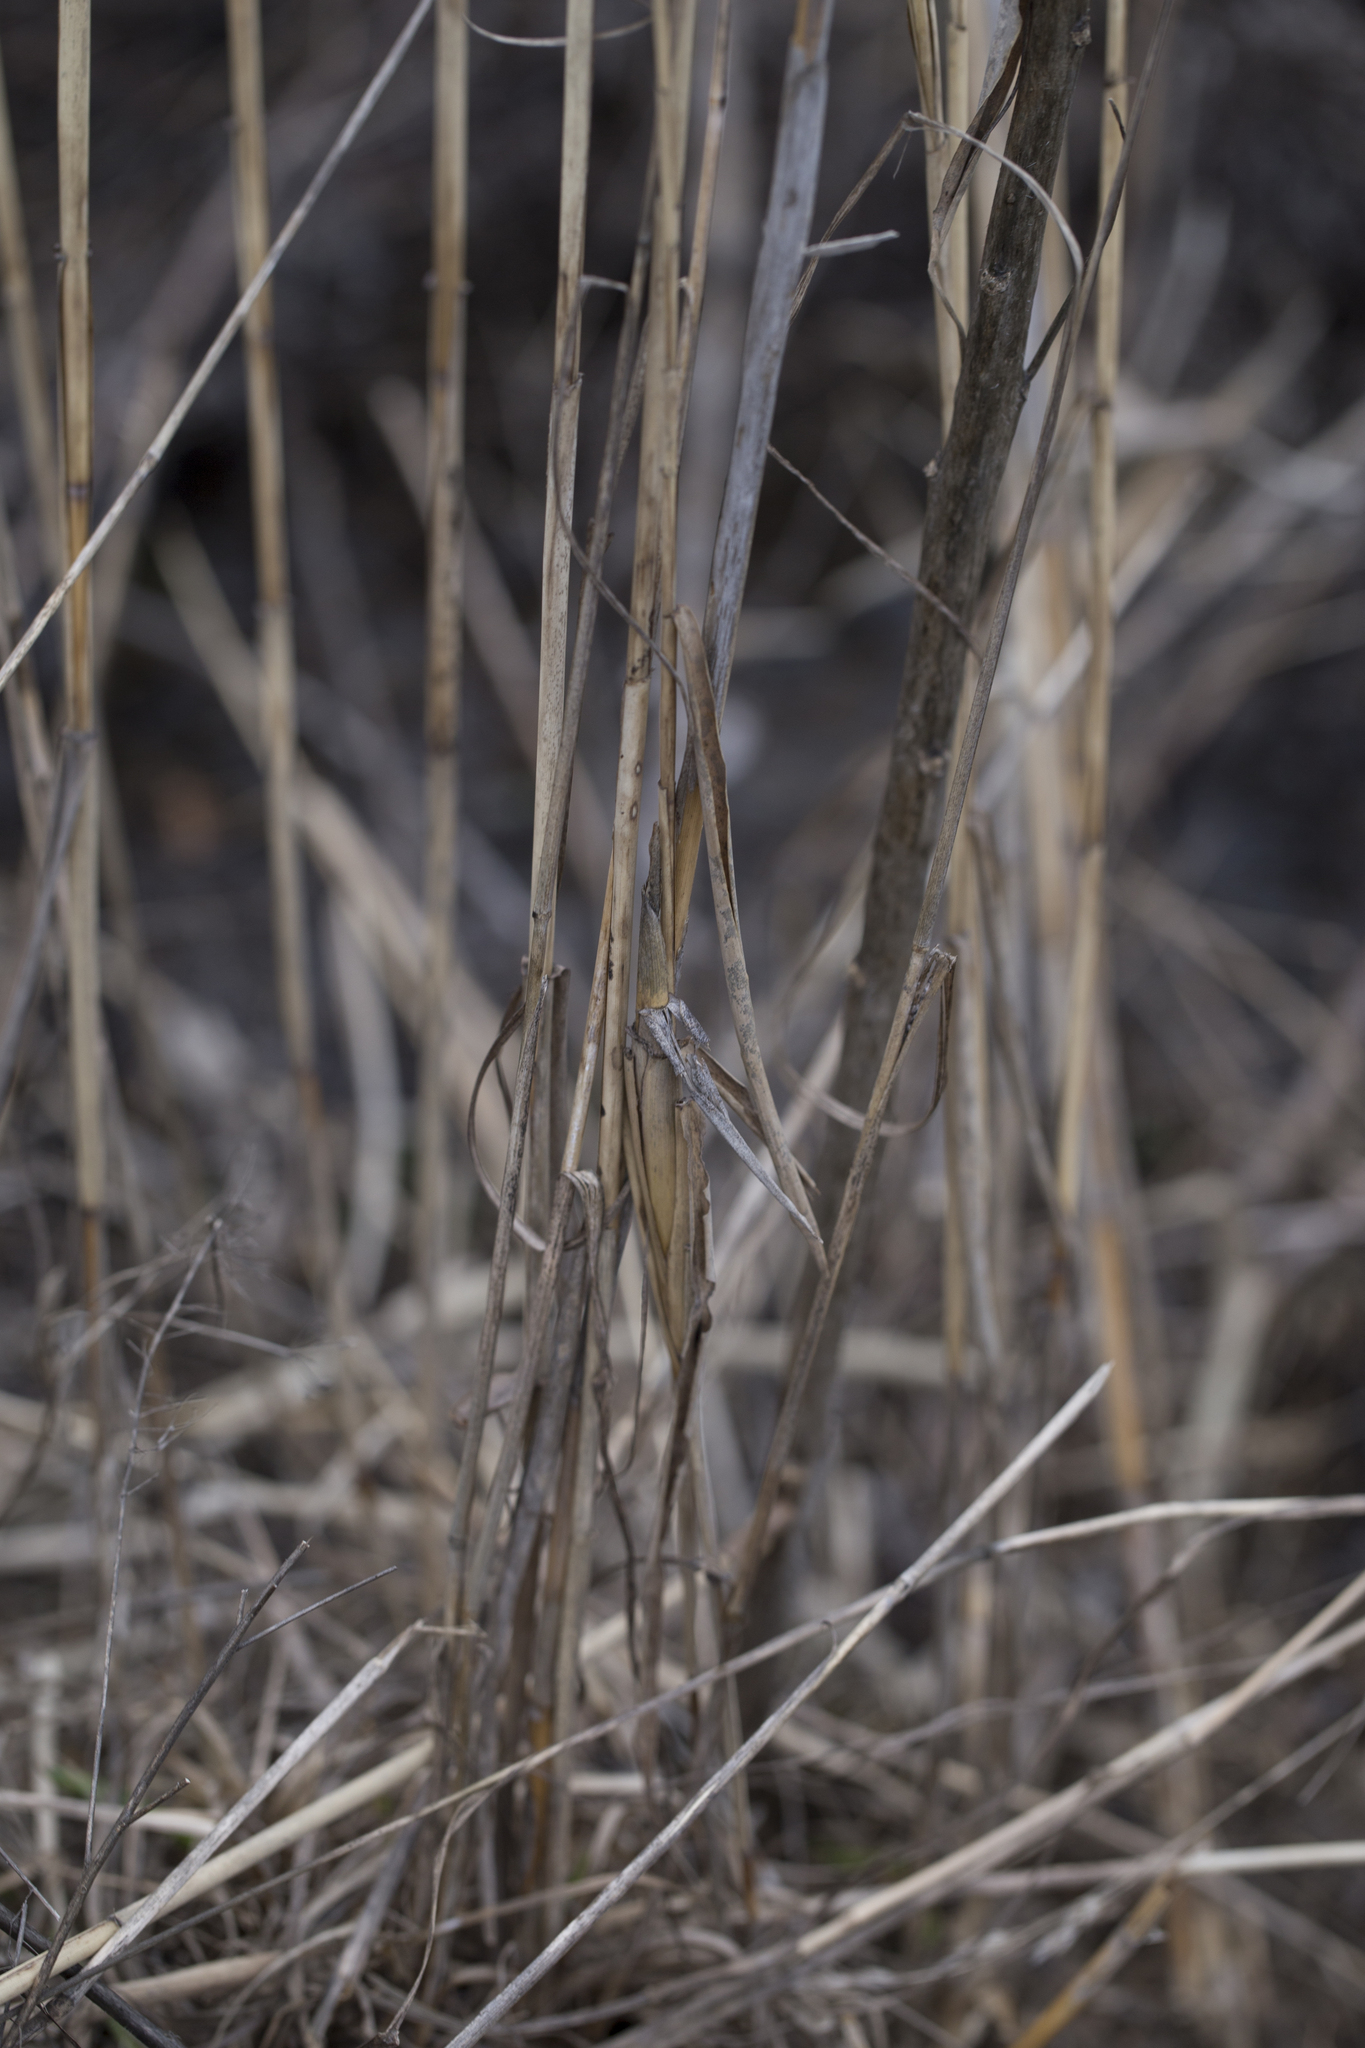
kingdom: Plantae
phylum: Tracheophyta
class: Liliopsida
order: Poales
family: Poaceae
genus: Phragmites
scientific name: Phragmites australis
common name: Common reed
